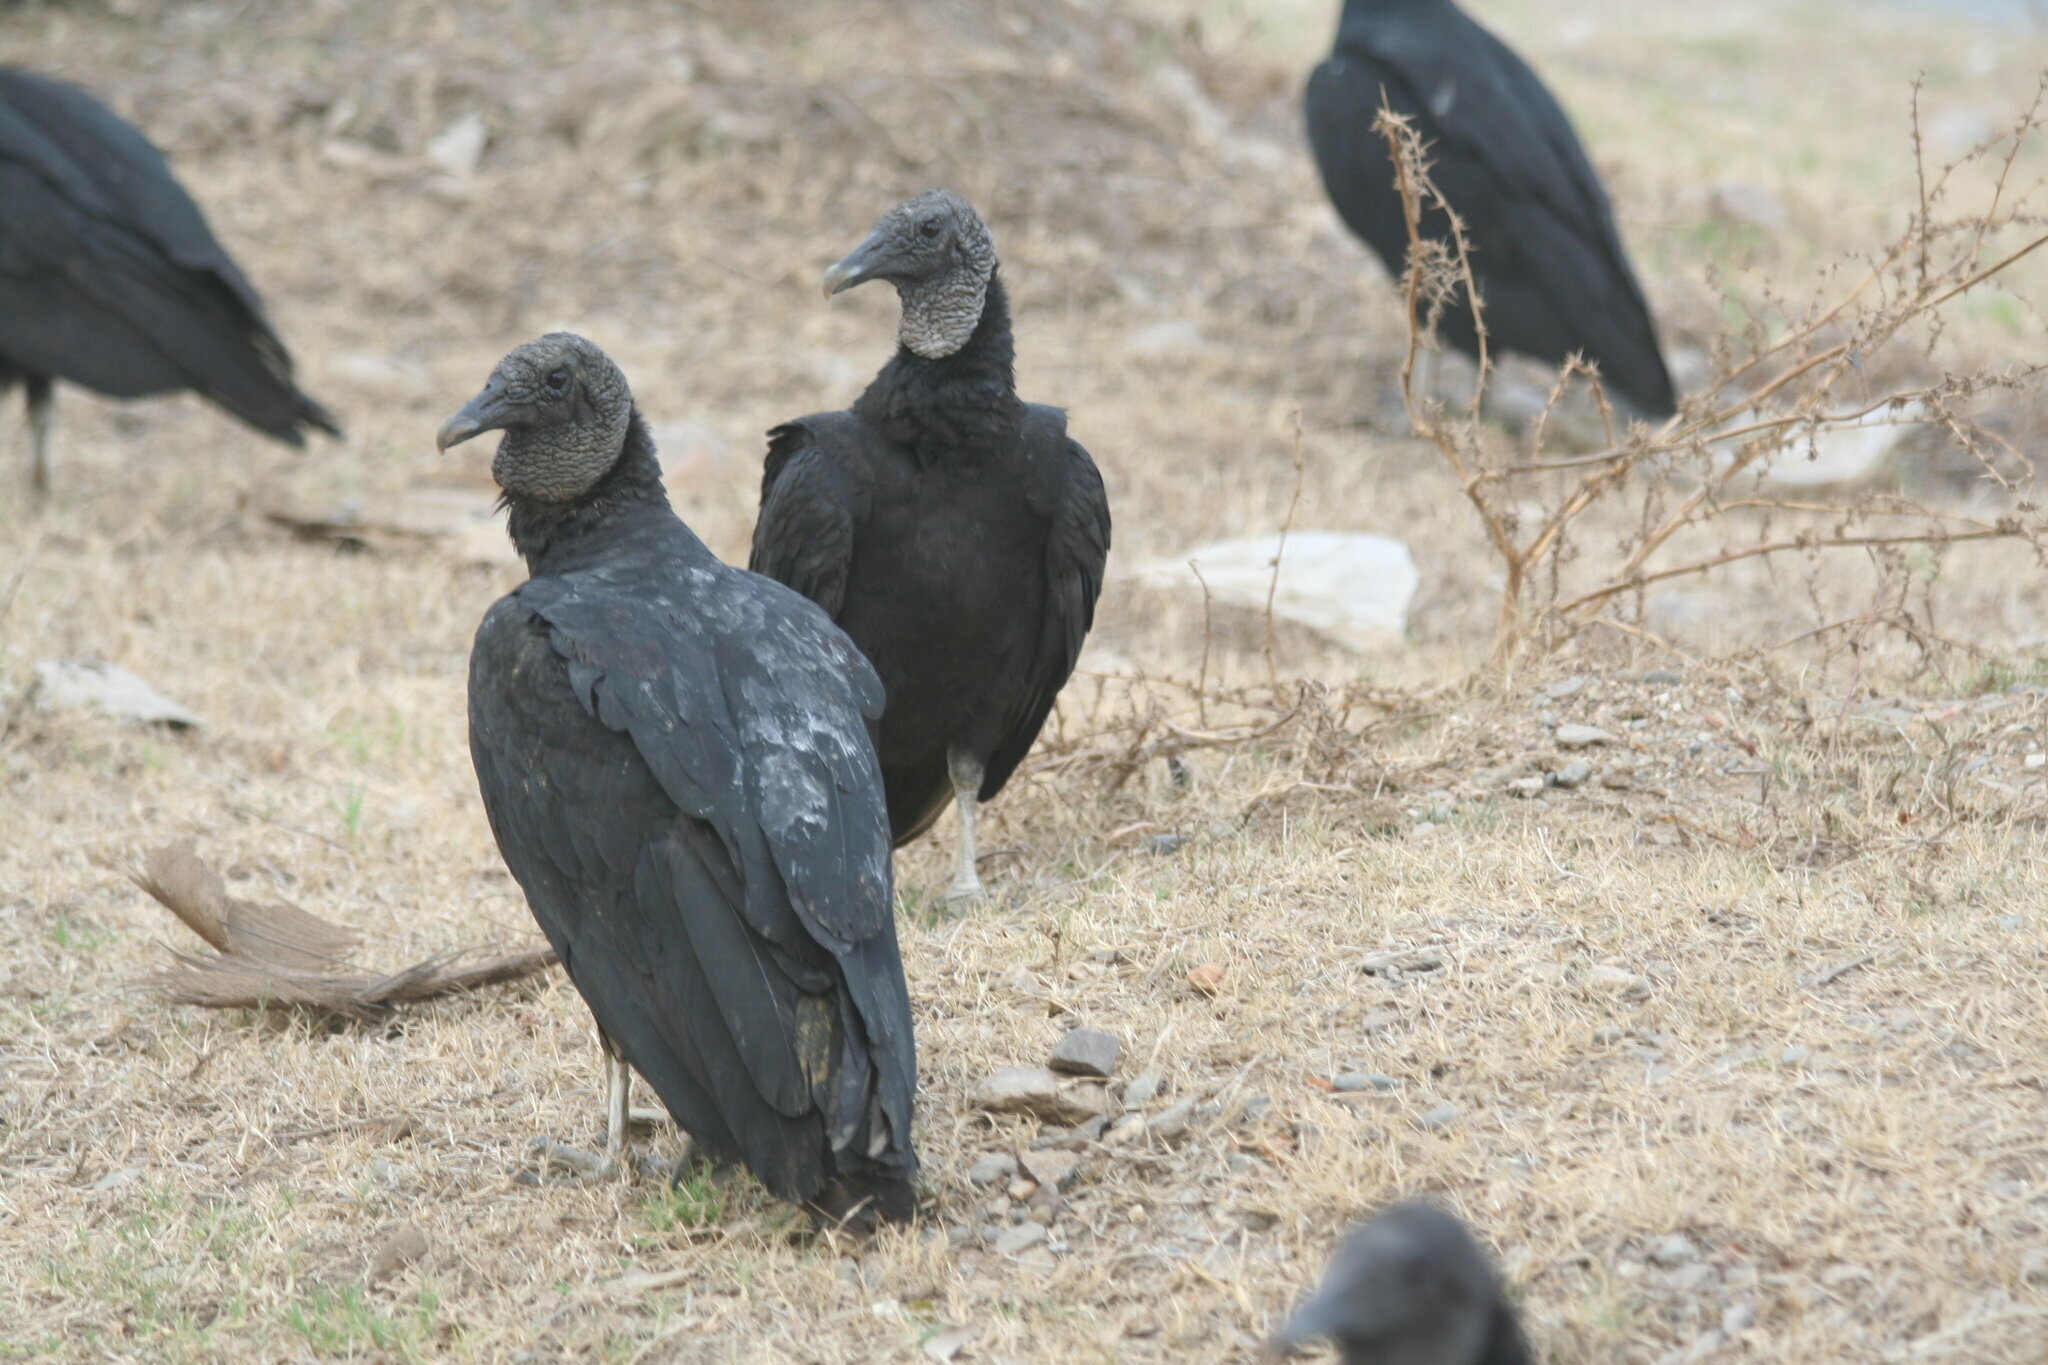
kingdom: Animalia
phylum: Chordata
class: Aves
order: Accipitriformes
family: Cathartidae
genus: Coragyps
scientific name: Coragyps atratus
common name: Black vulture
